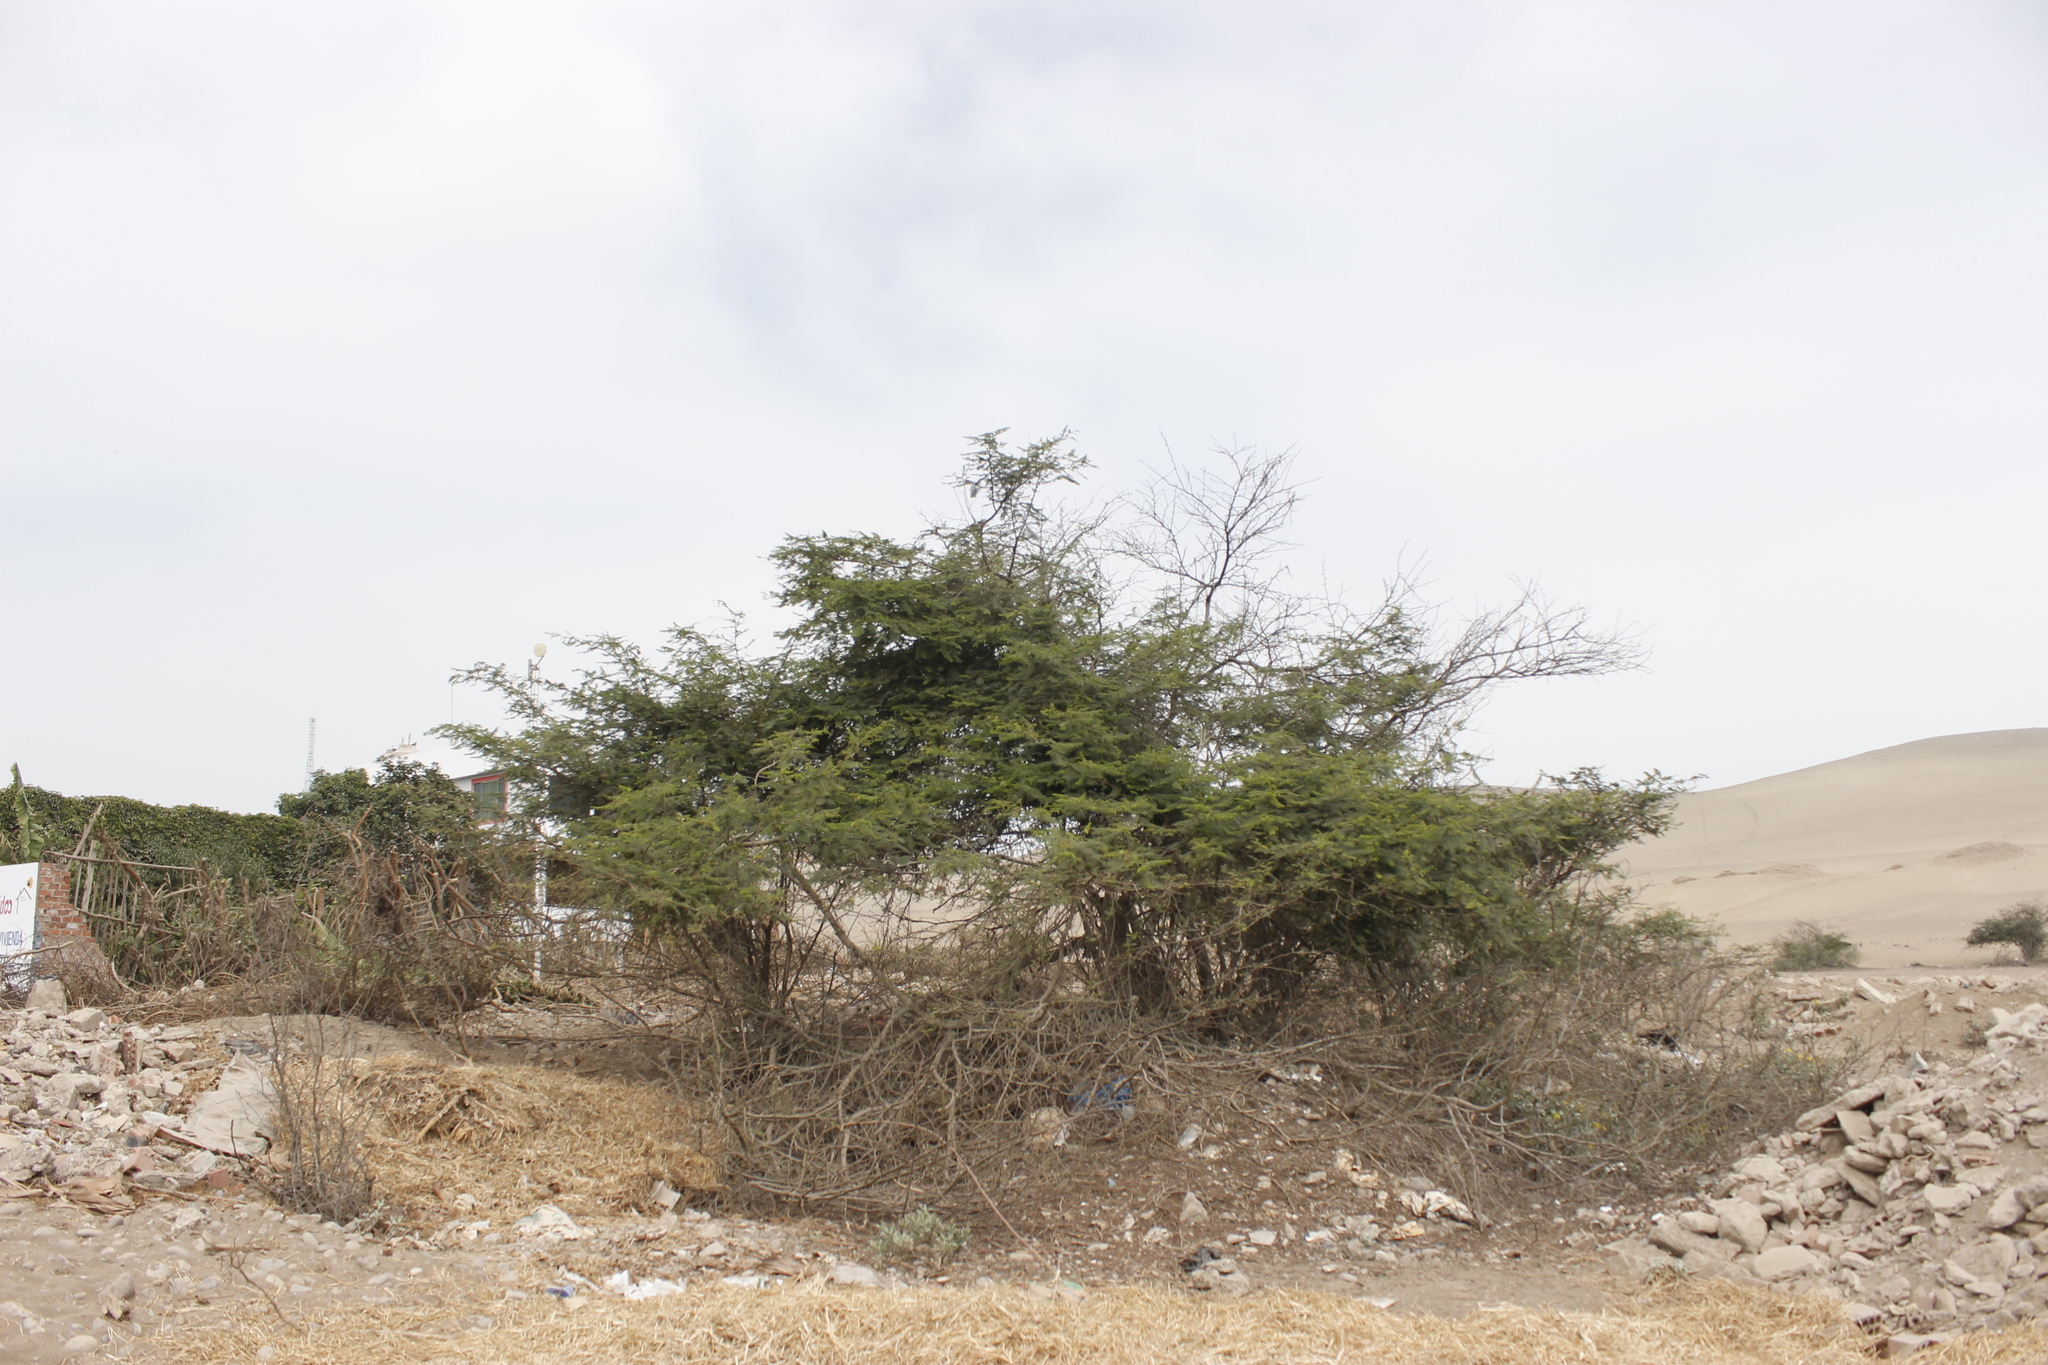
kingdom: Plantae
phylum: Tracheophyta
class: Magnoliopsida
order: Fabales
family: Fabaceae
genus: Vachellia
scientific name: Vachellia macracantha
